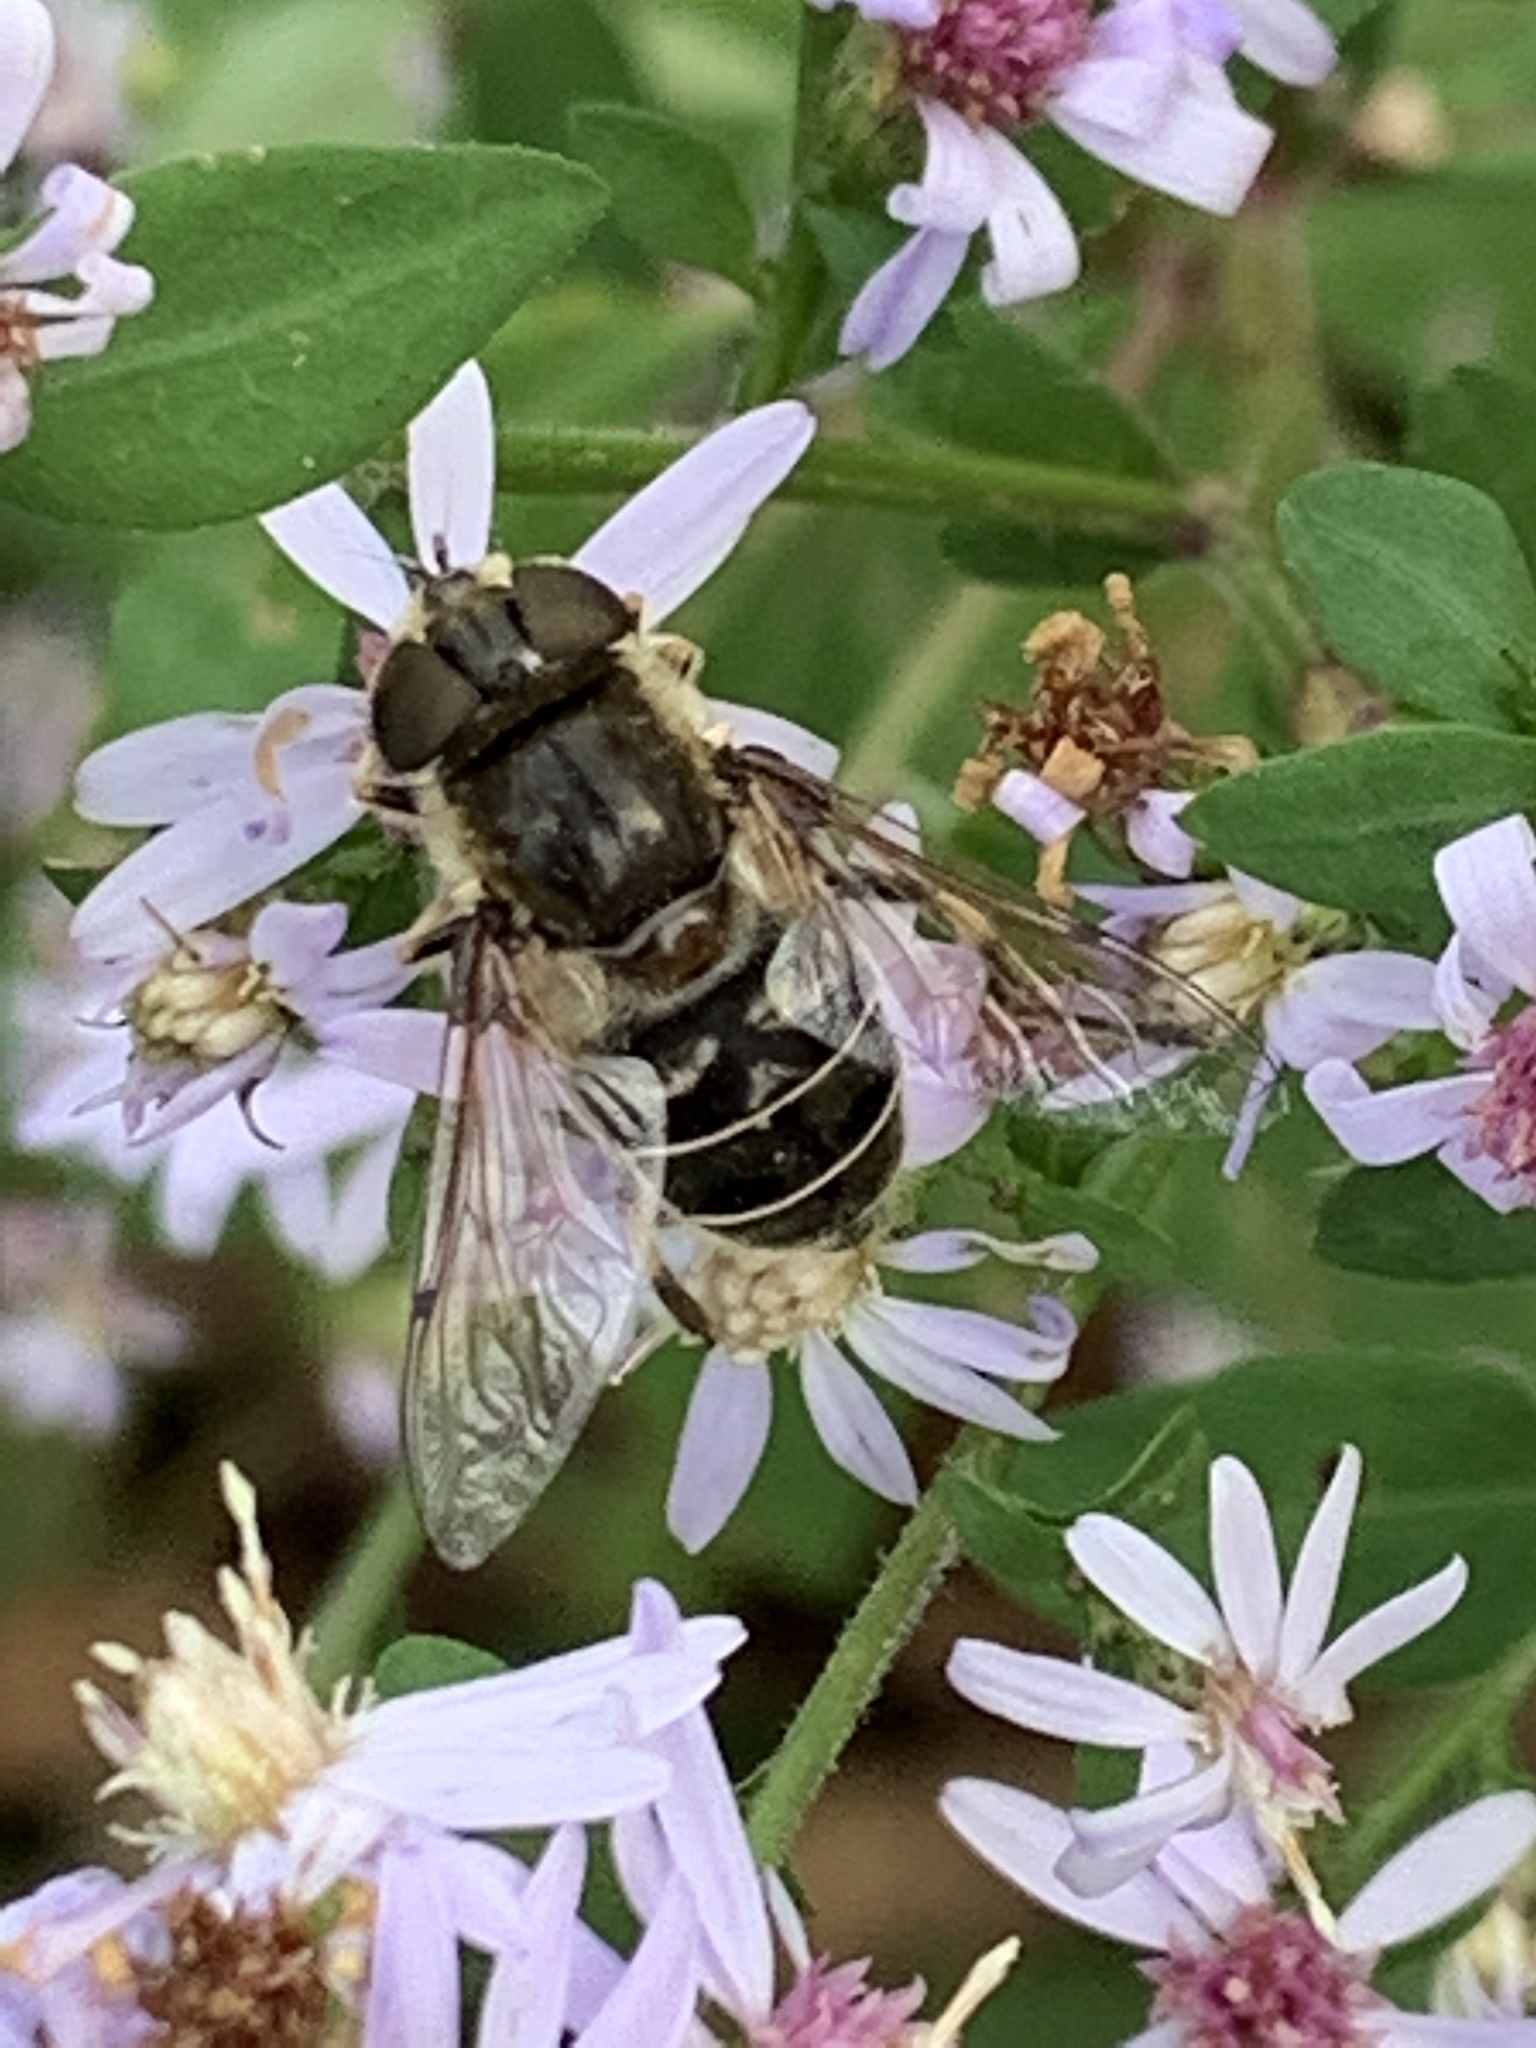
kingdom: Animalia
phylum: Arthropoda
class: Insecta
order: Diptera
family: Syrphidae
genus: Eristalis
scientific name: Eristalis dimidiata
